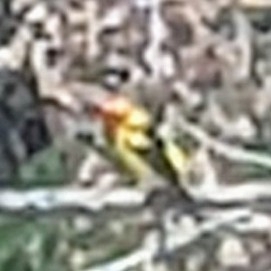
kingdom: Animalia
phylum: Chordata
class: Aves
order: Passeriformes
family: Cardinalidae
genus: Piranga
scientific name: Piranga ludoviciana
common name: Western tanager
